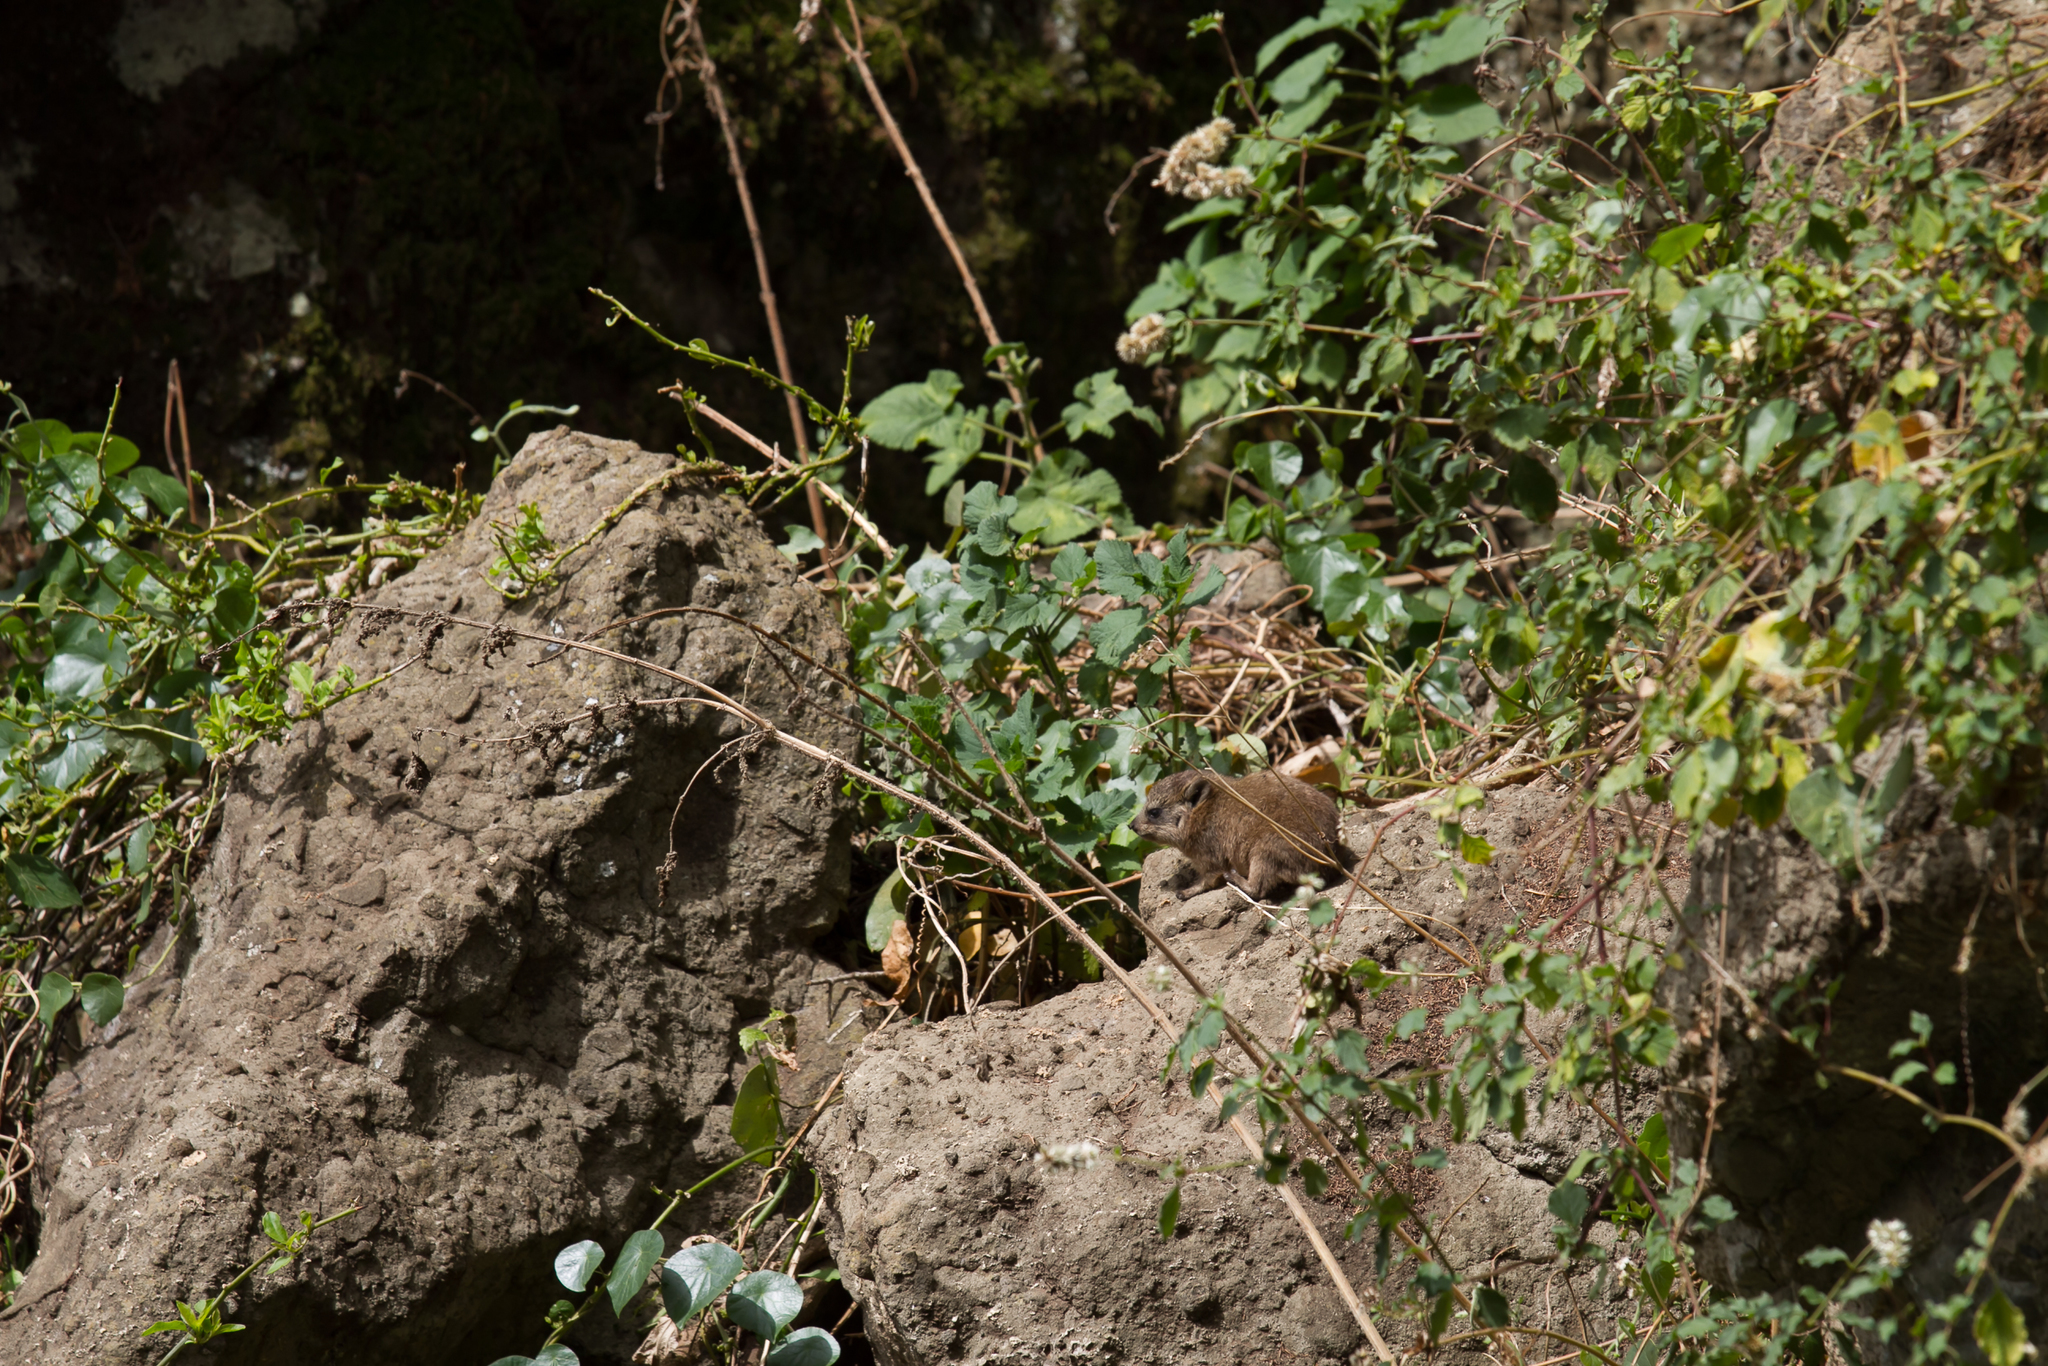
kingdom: Animalia
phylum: Chordata
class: Mammalia
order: Hyracoidea
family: Procaviidae
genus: Procavia
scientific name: Procavia capensis
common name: Rock hyrax
